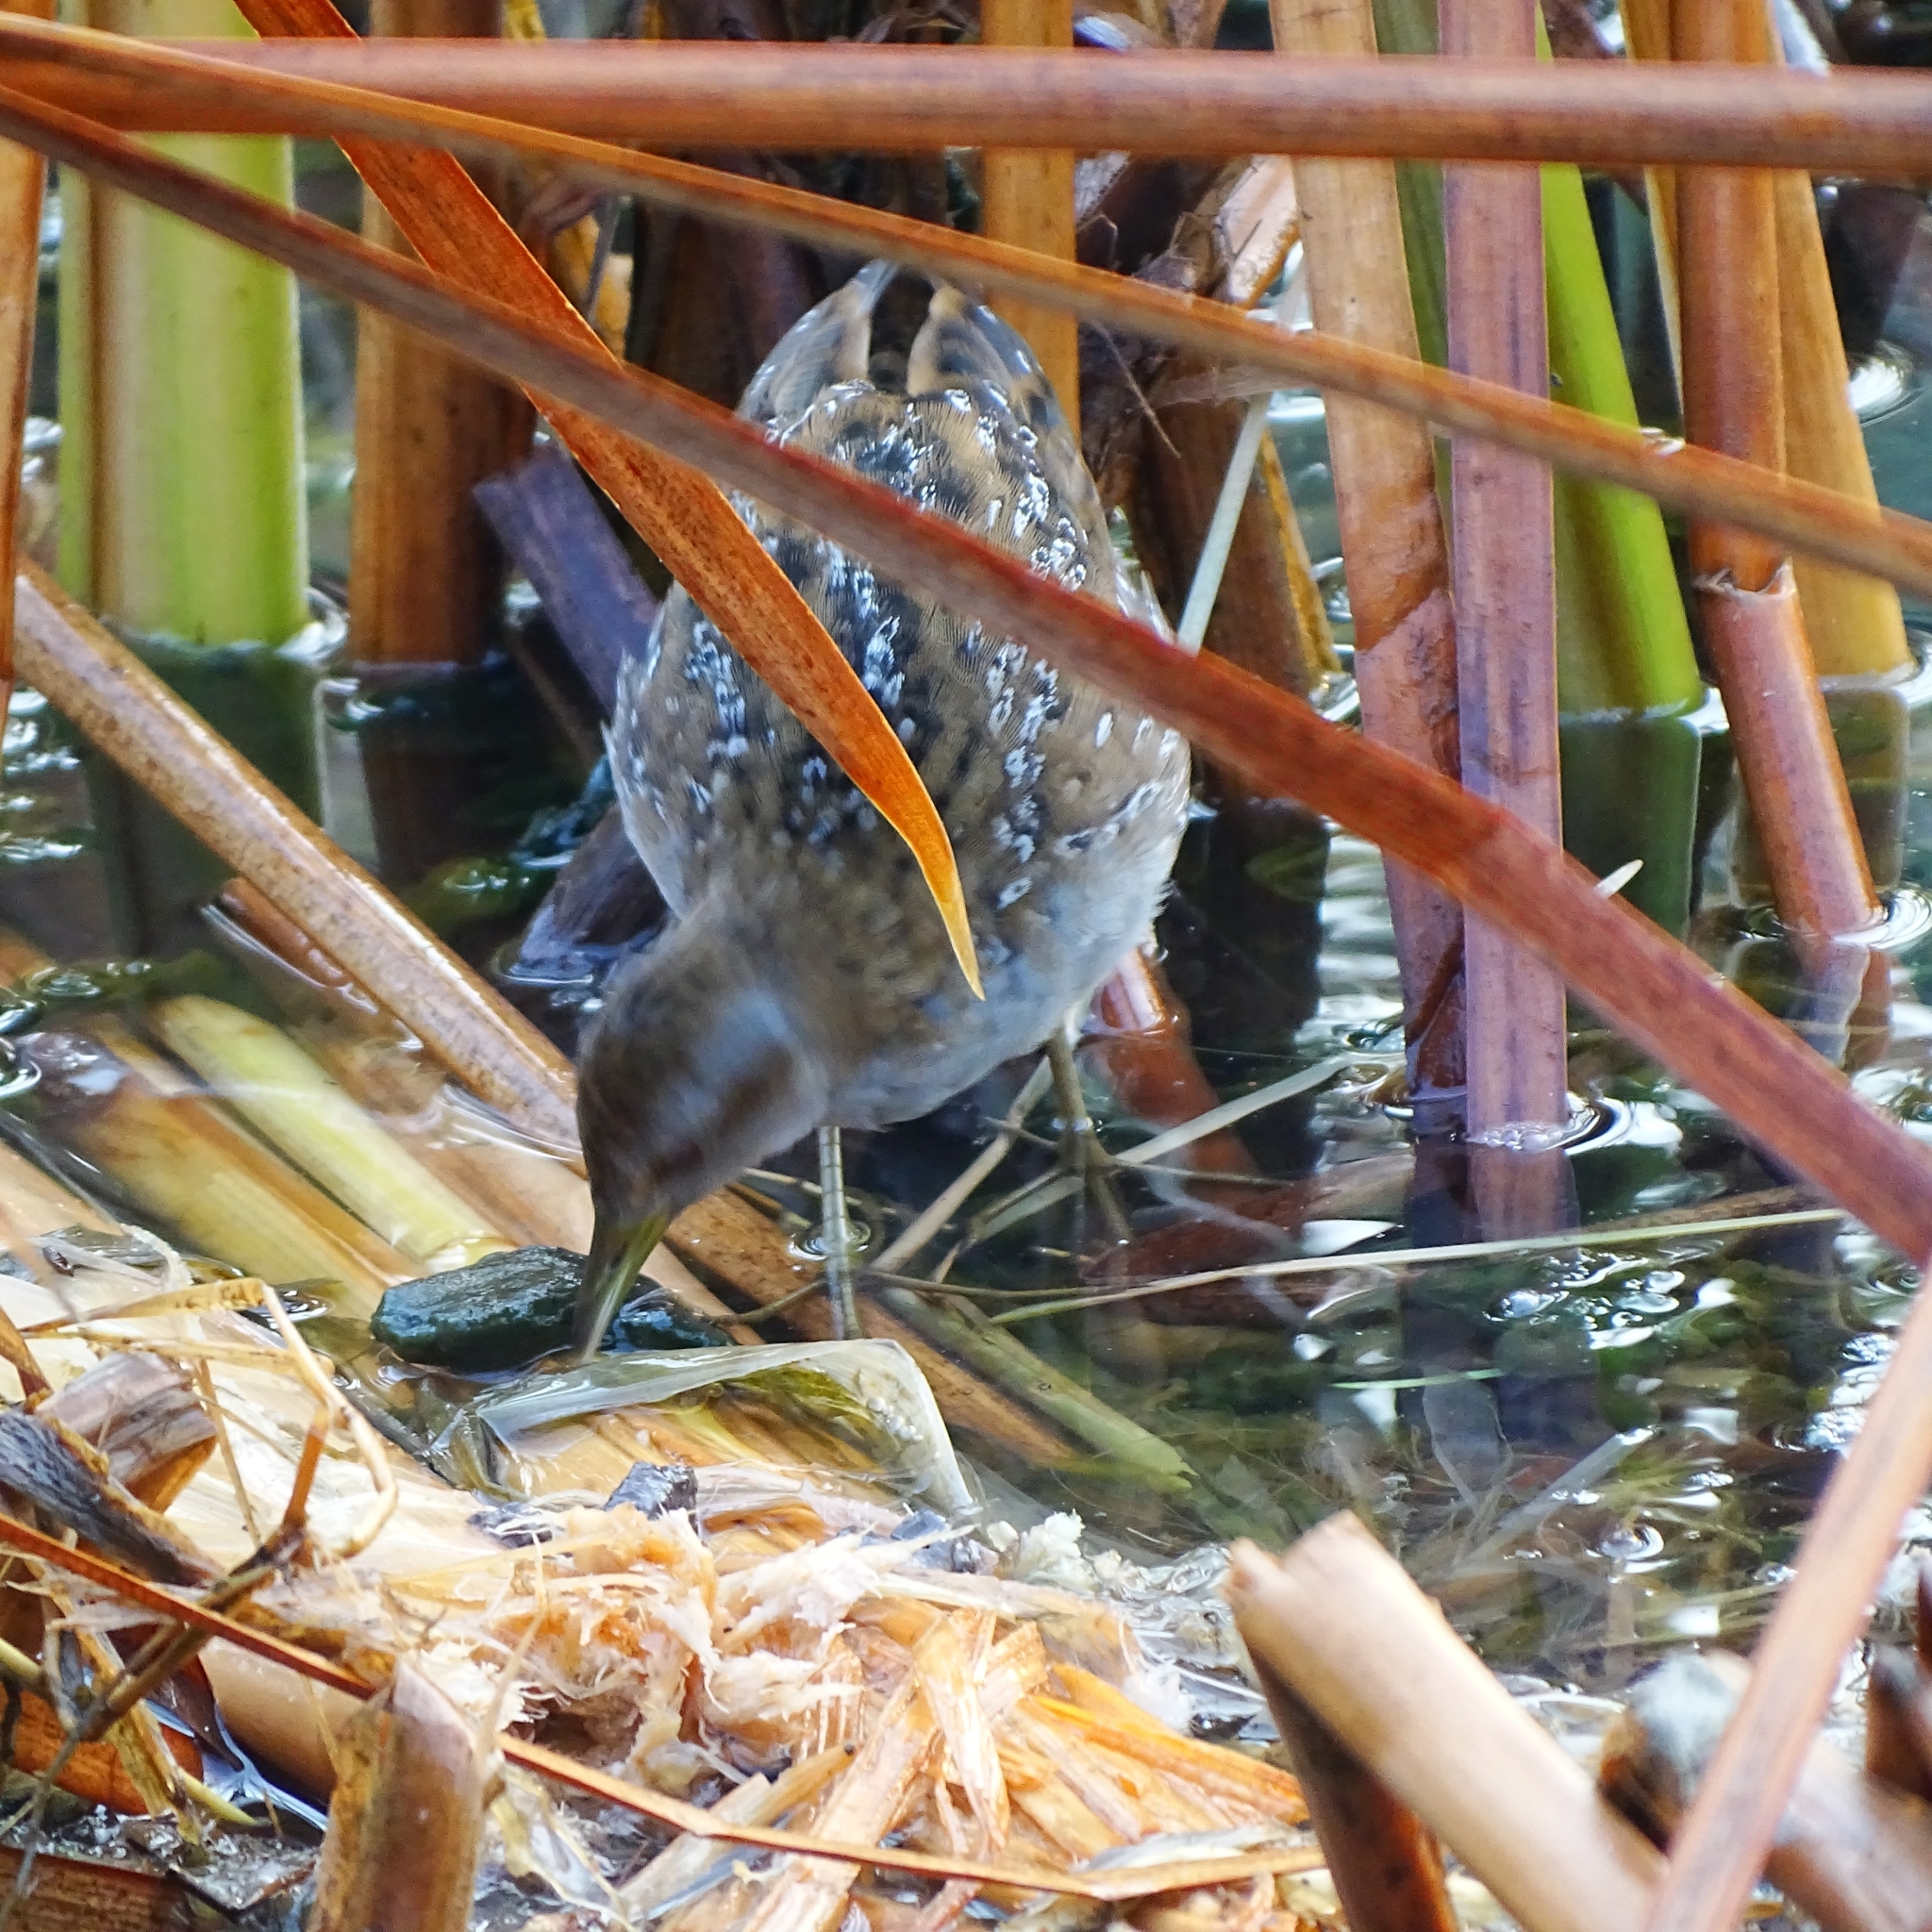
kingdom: Animalia
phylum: Chordata
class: Aves
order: Gruiformes
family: Rallidae
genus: Porzana
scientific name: Porzana pusilla
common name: Baillon's crake
